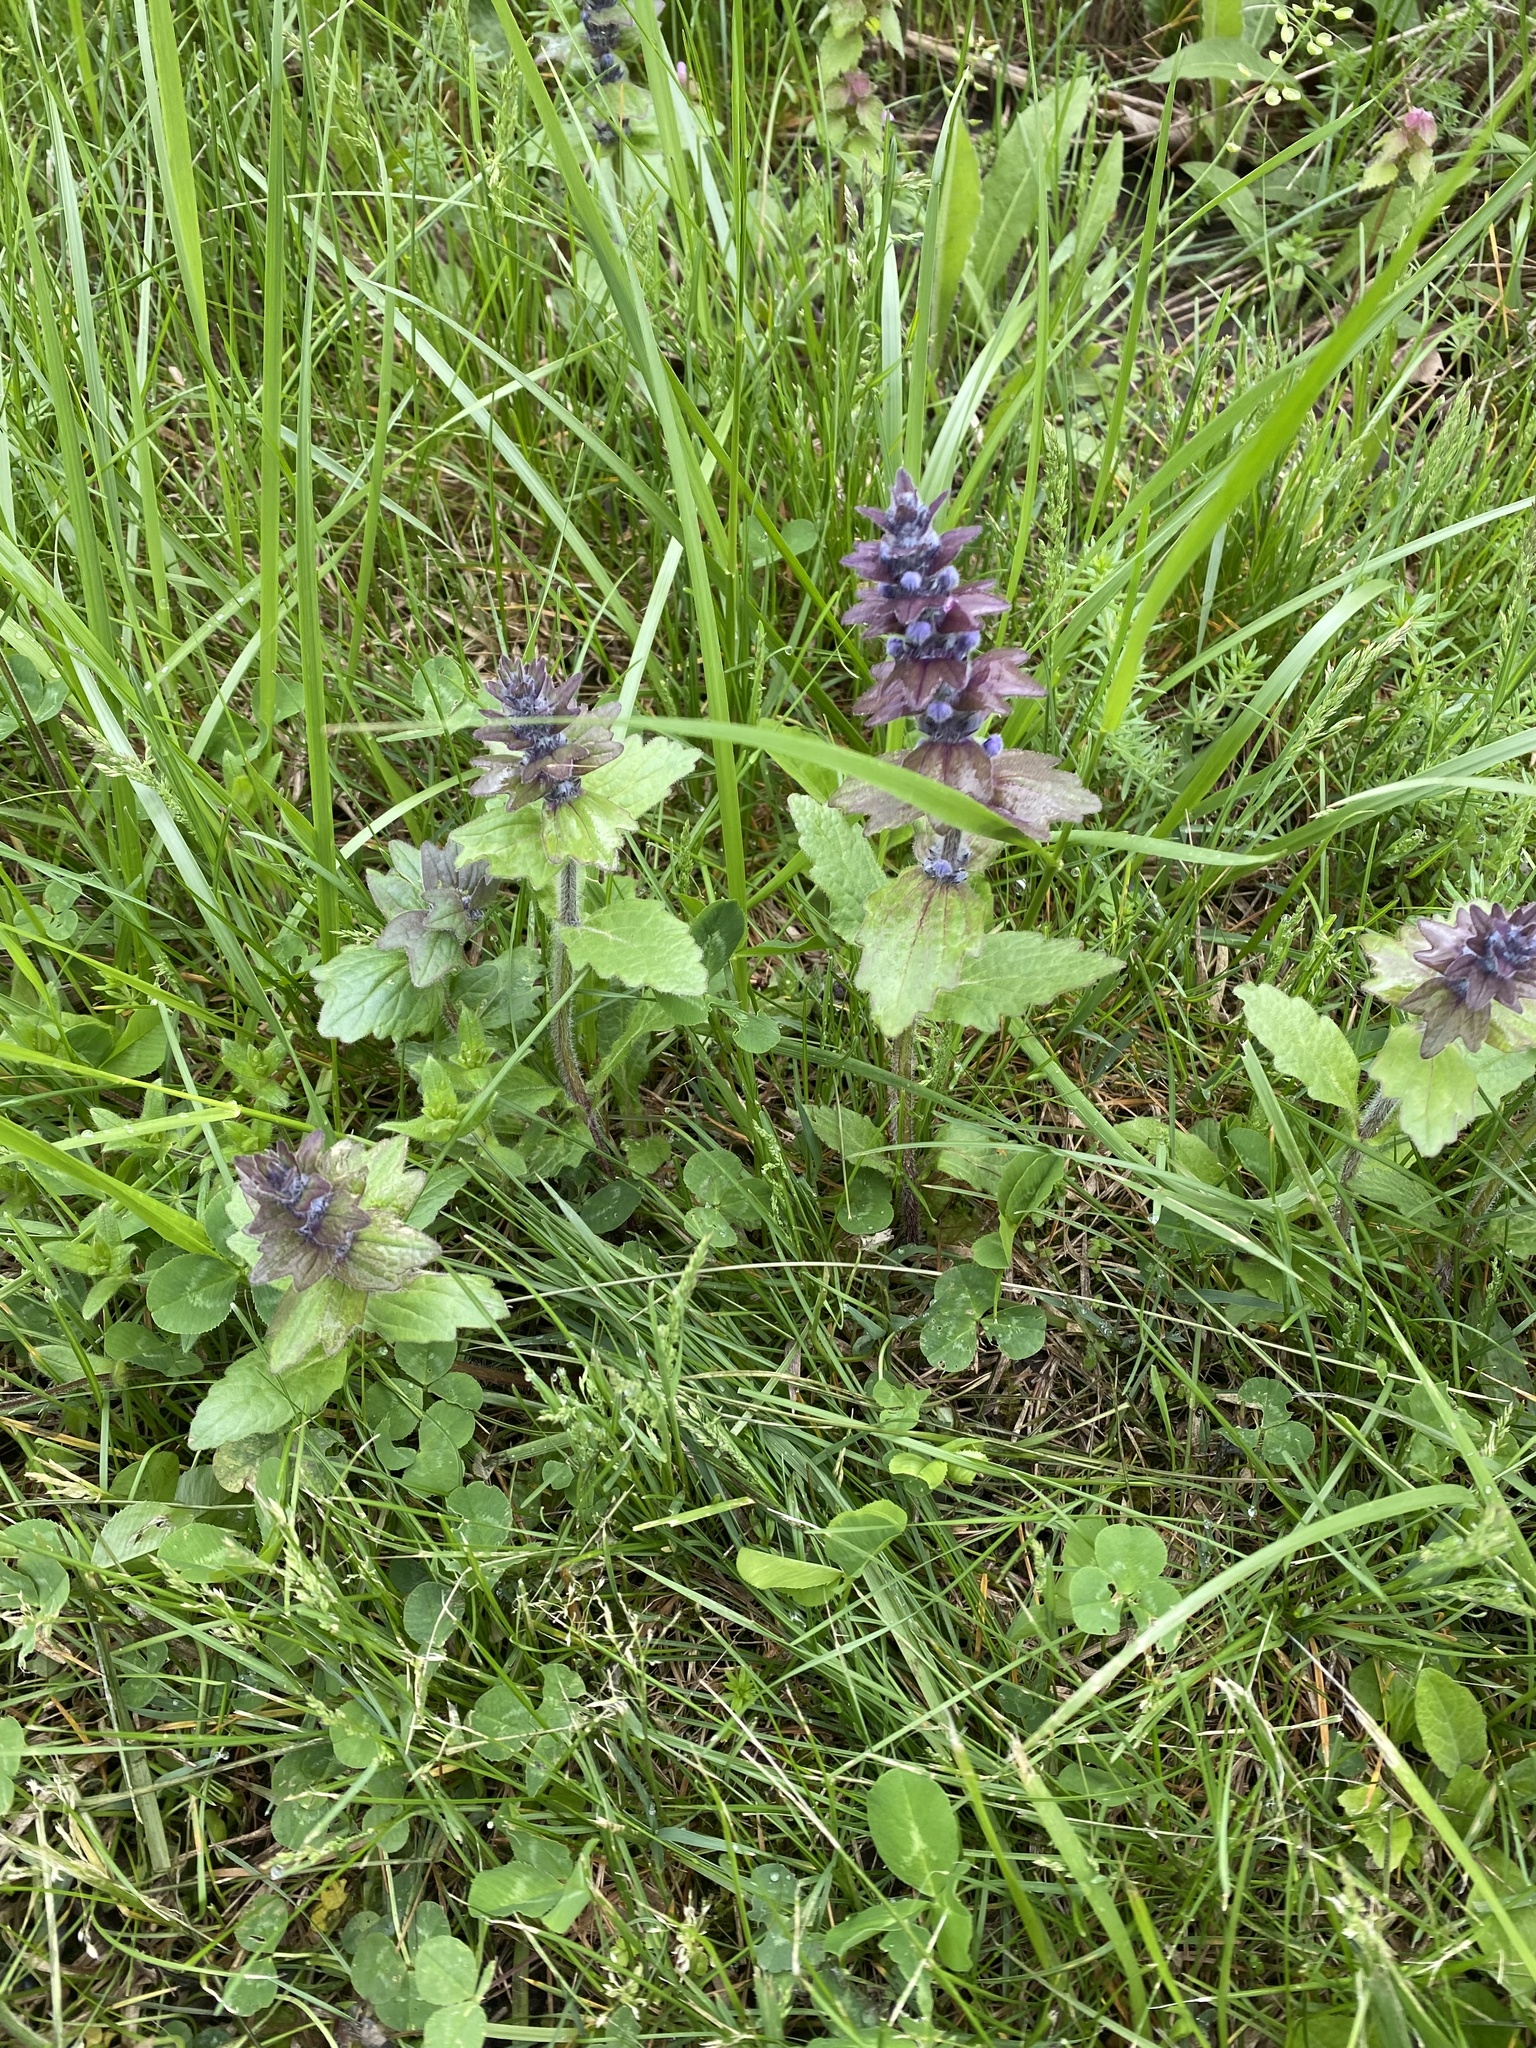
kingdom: Plantae
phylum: Tracheophyta
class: Magnoliopsida
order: Lamiales
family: Lamiaceae
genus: Ajuga
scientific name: Ajuga genevensis
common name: Blue bugle
